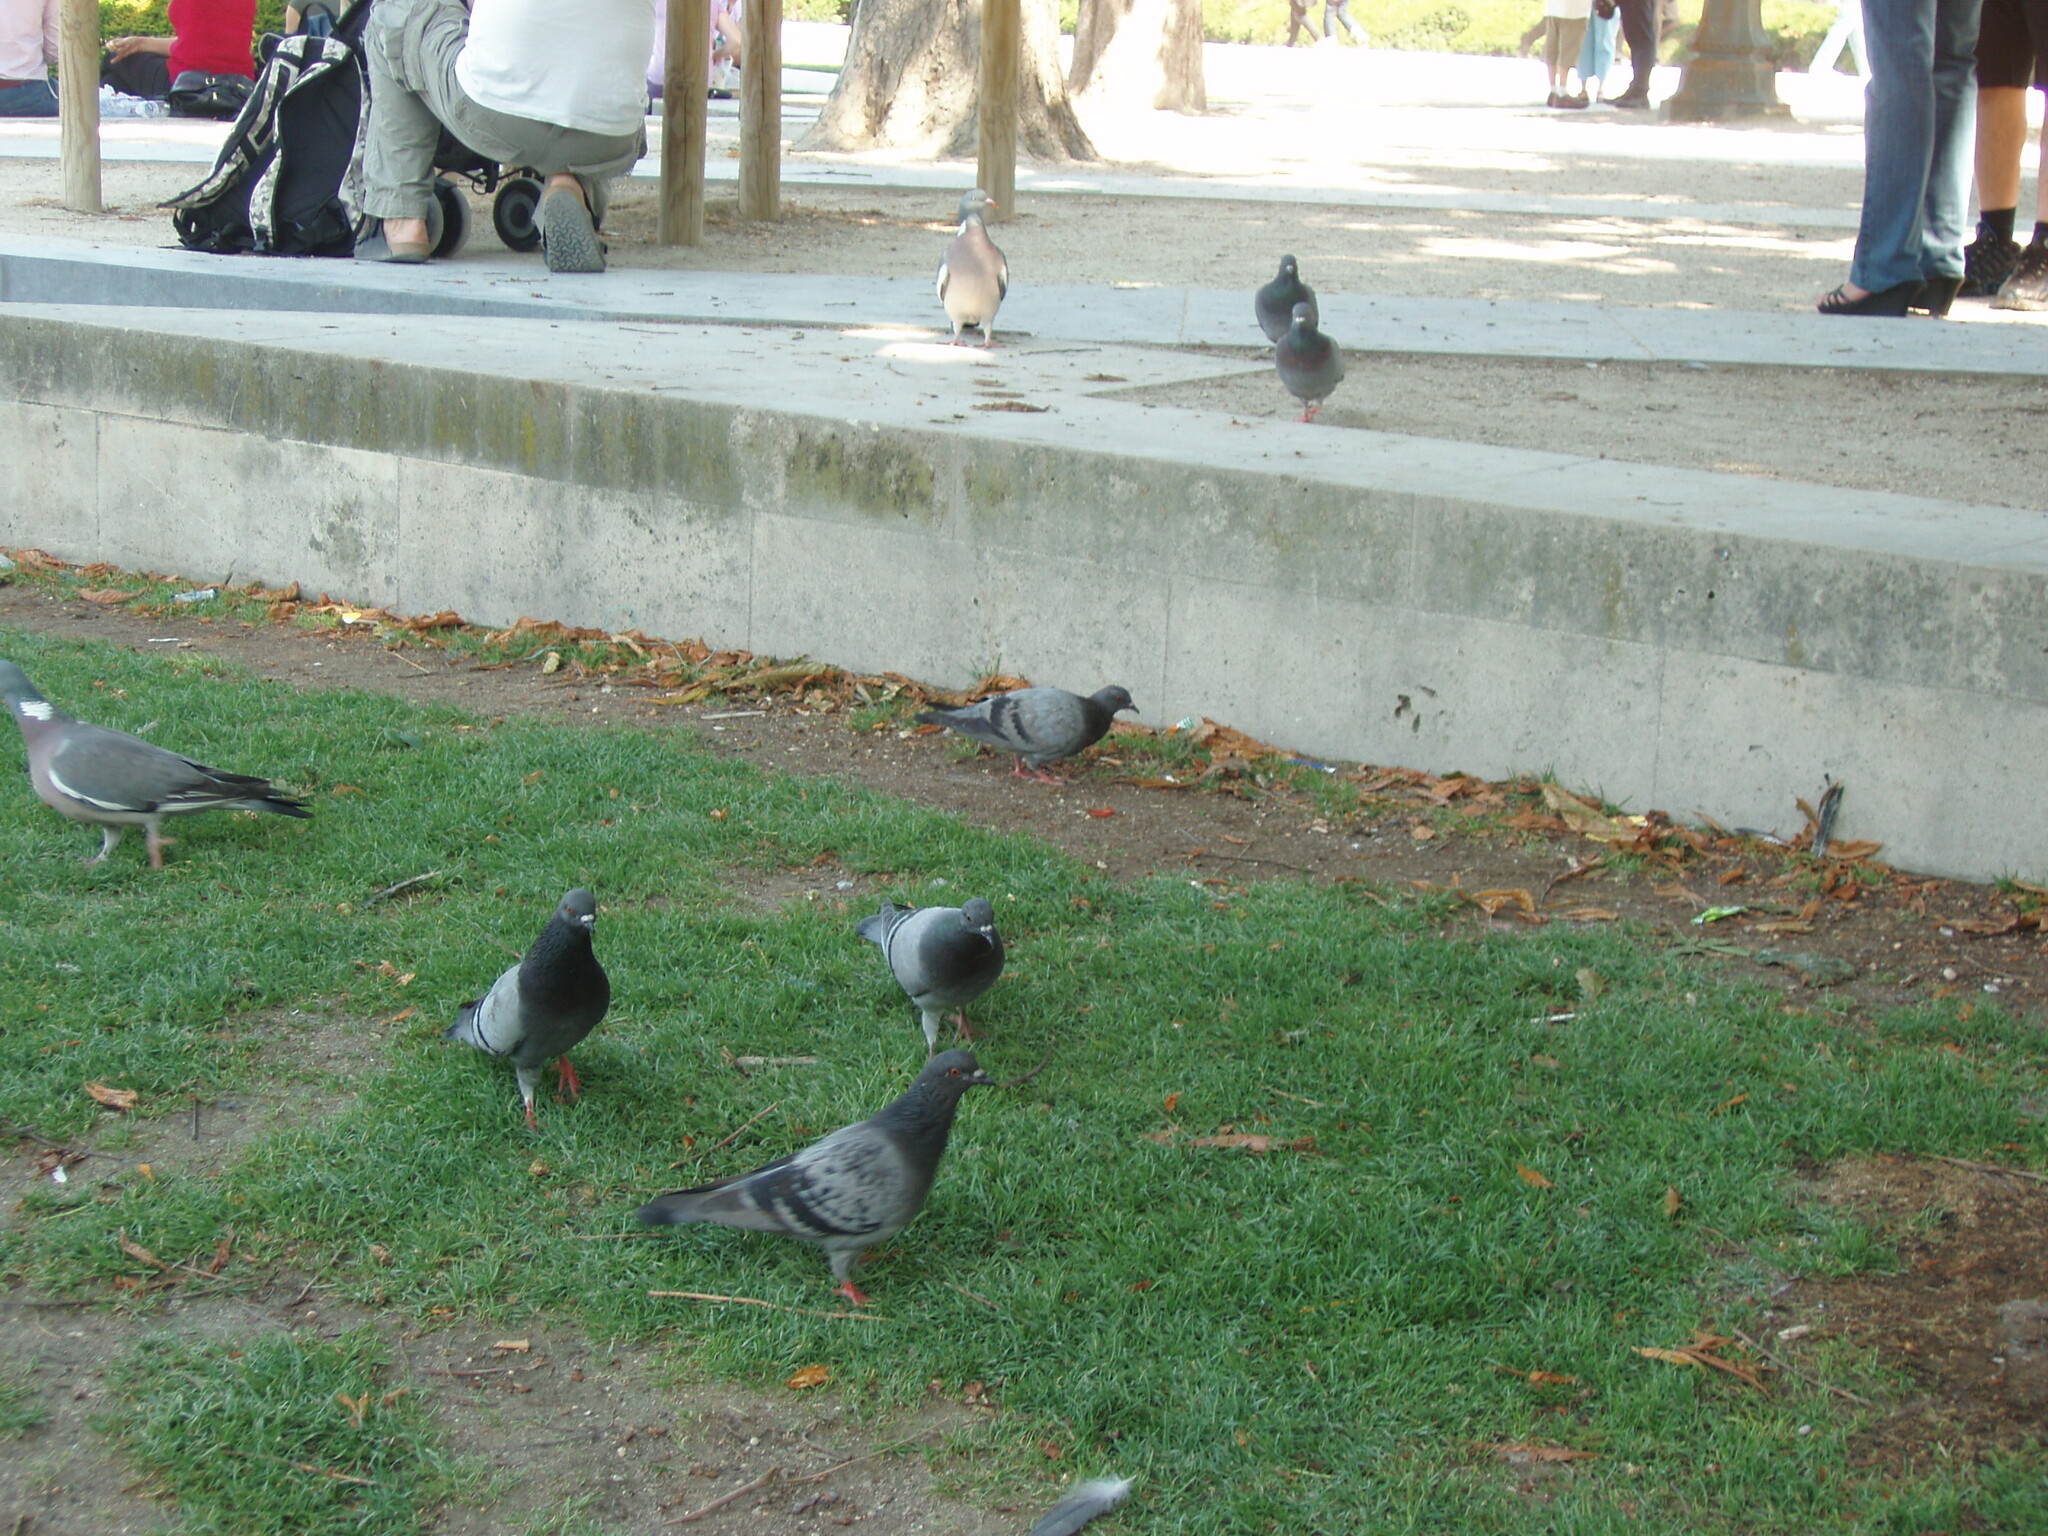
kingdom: Animalia
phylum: Chordata
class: Aves
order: Columbiformes
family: Columbidae
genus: Columba
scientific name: Columba livia
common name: Rock pigeon
